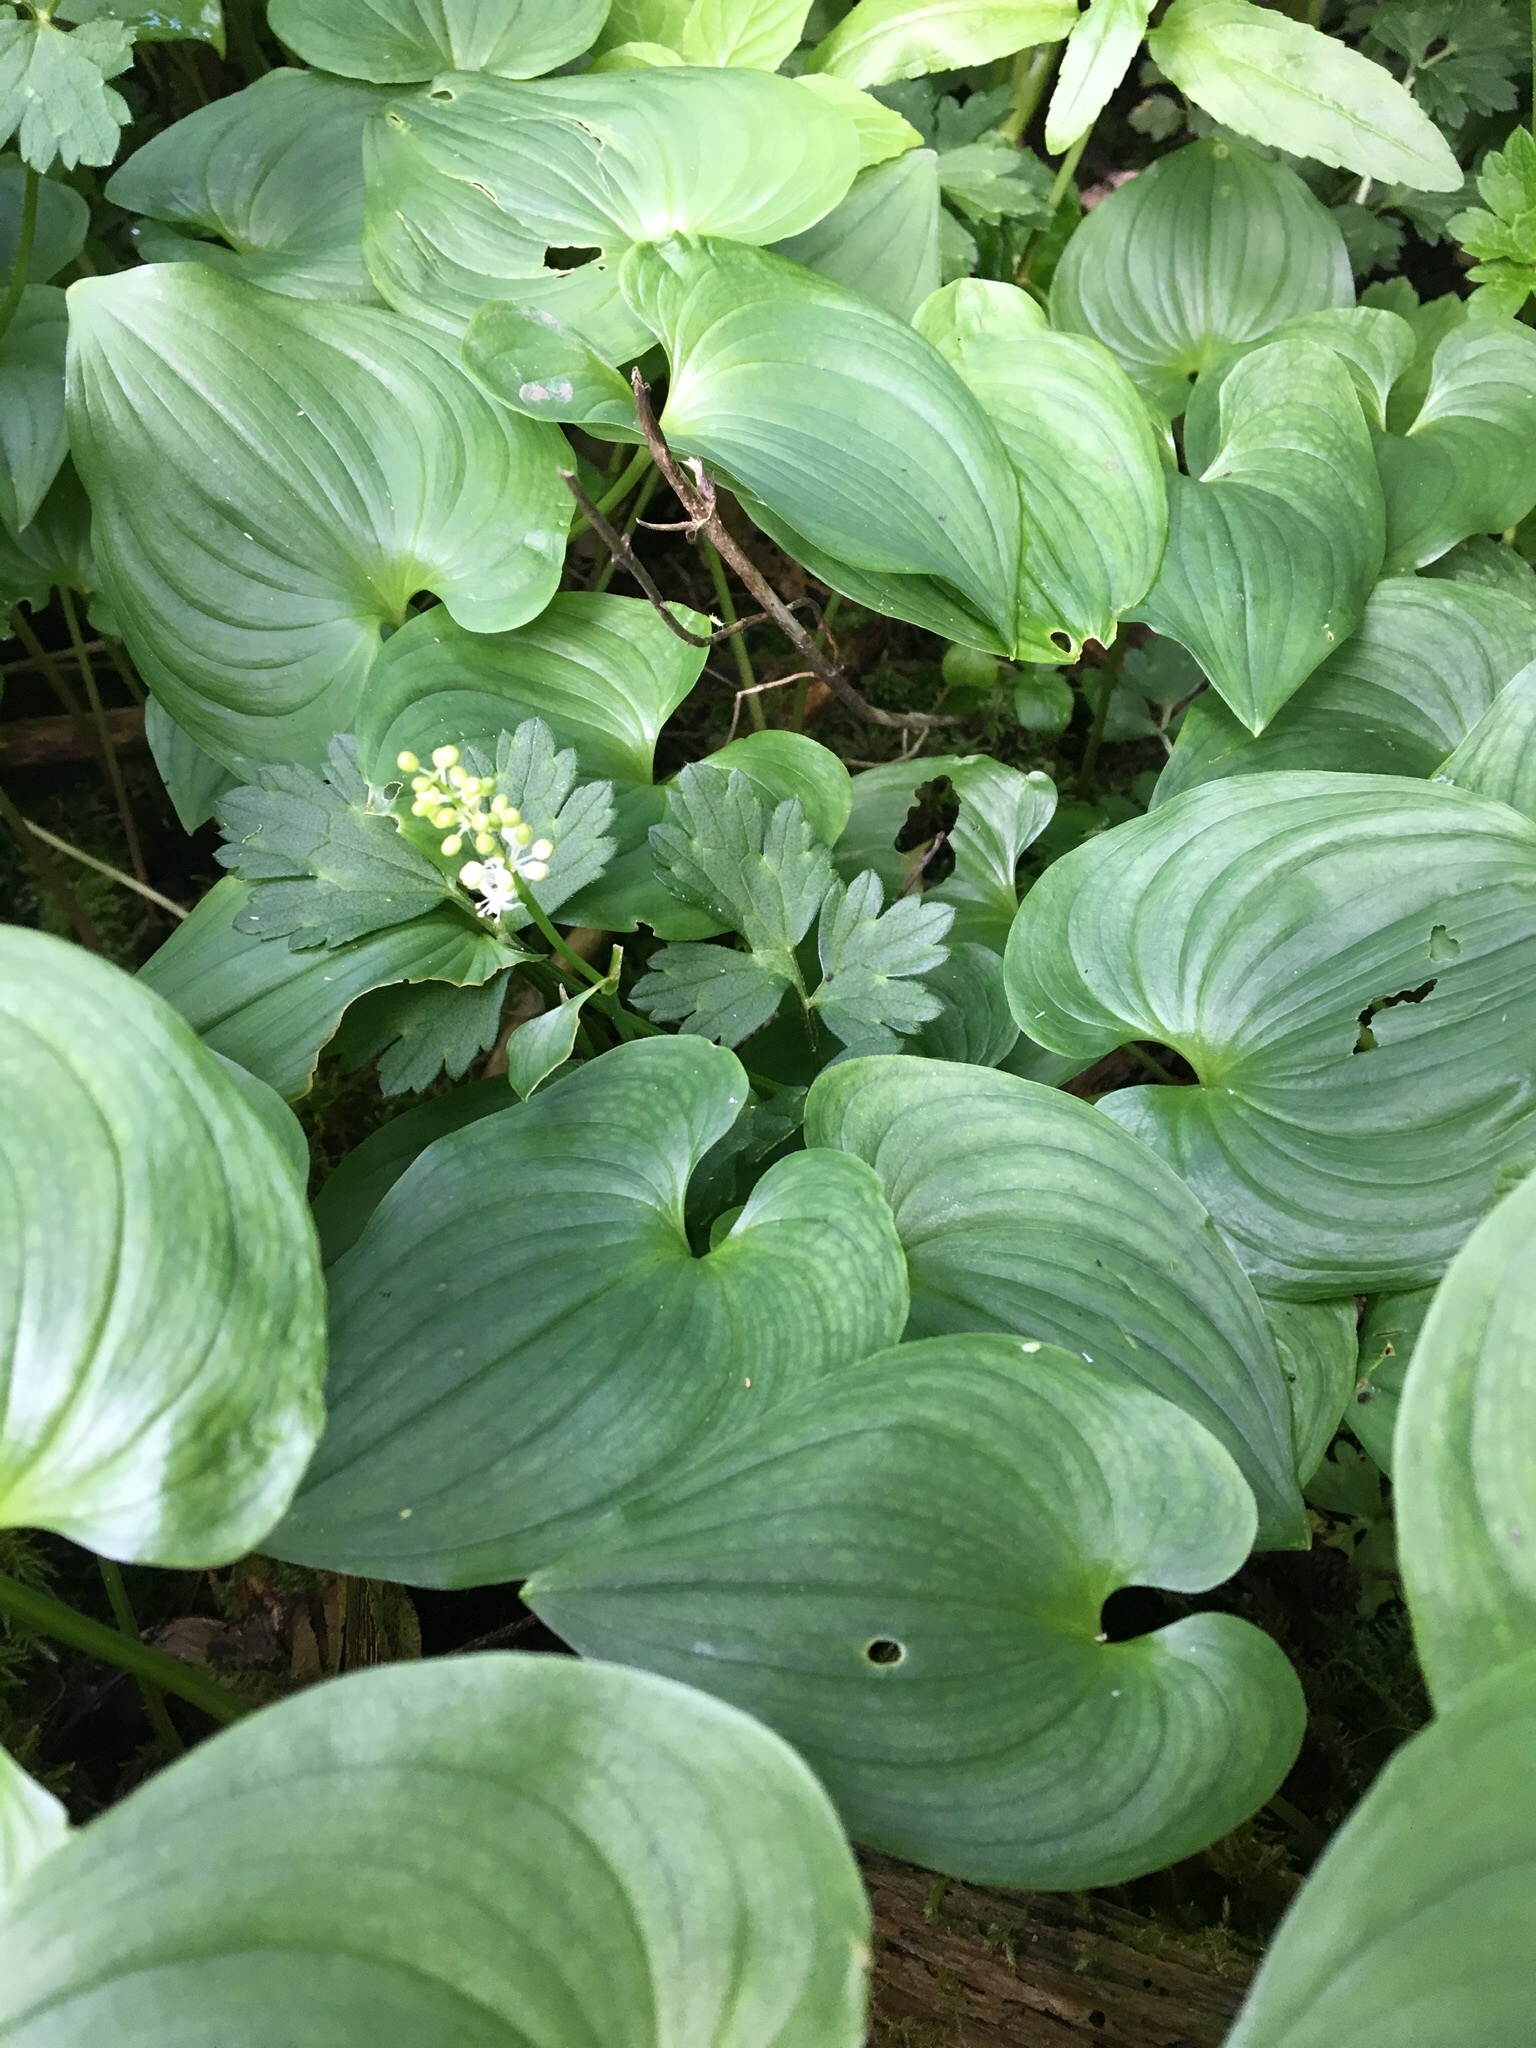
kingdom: Plantae
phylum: Tracheophyta
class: Liliopsida
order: Asparagales
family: Asparagaceae
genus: Maianthemum
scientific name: Maianthemum dilatatum
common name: False lily-of-the-valley
